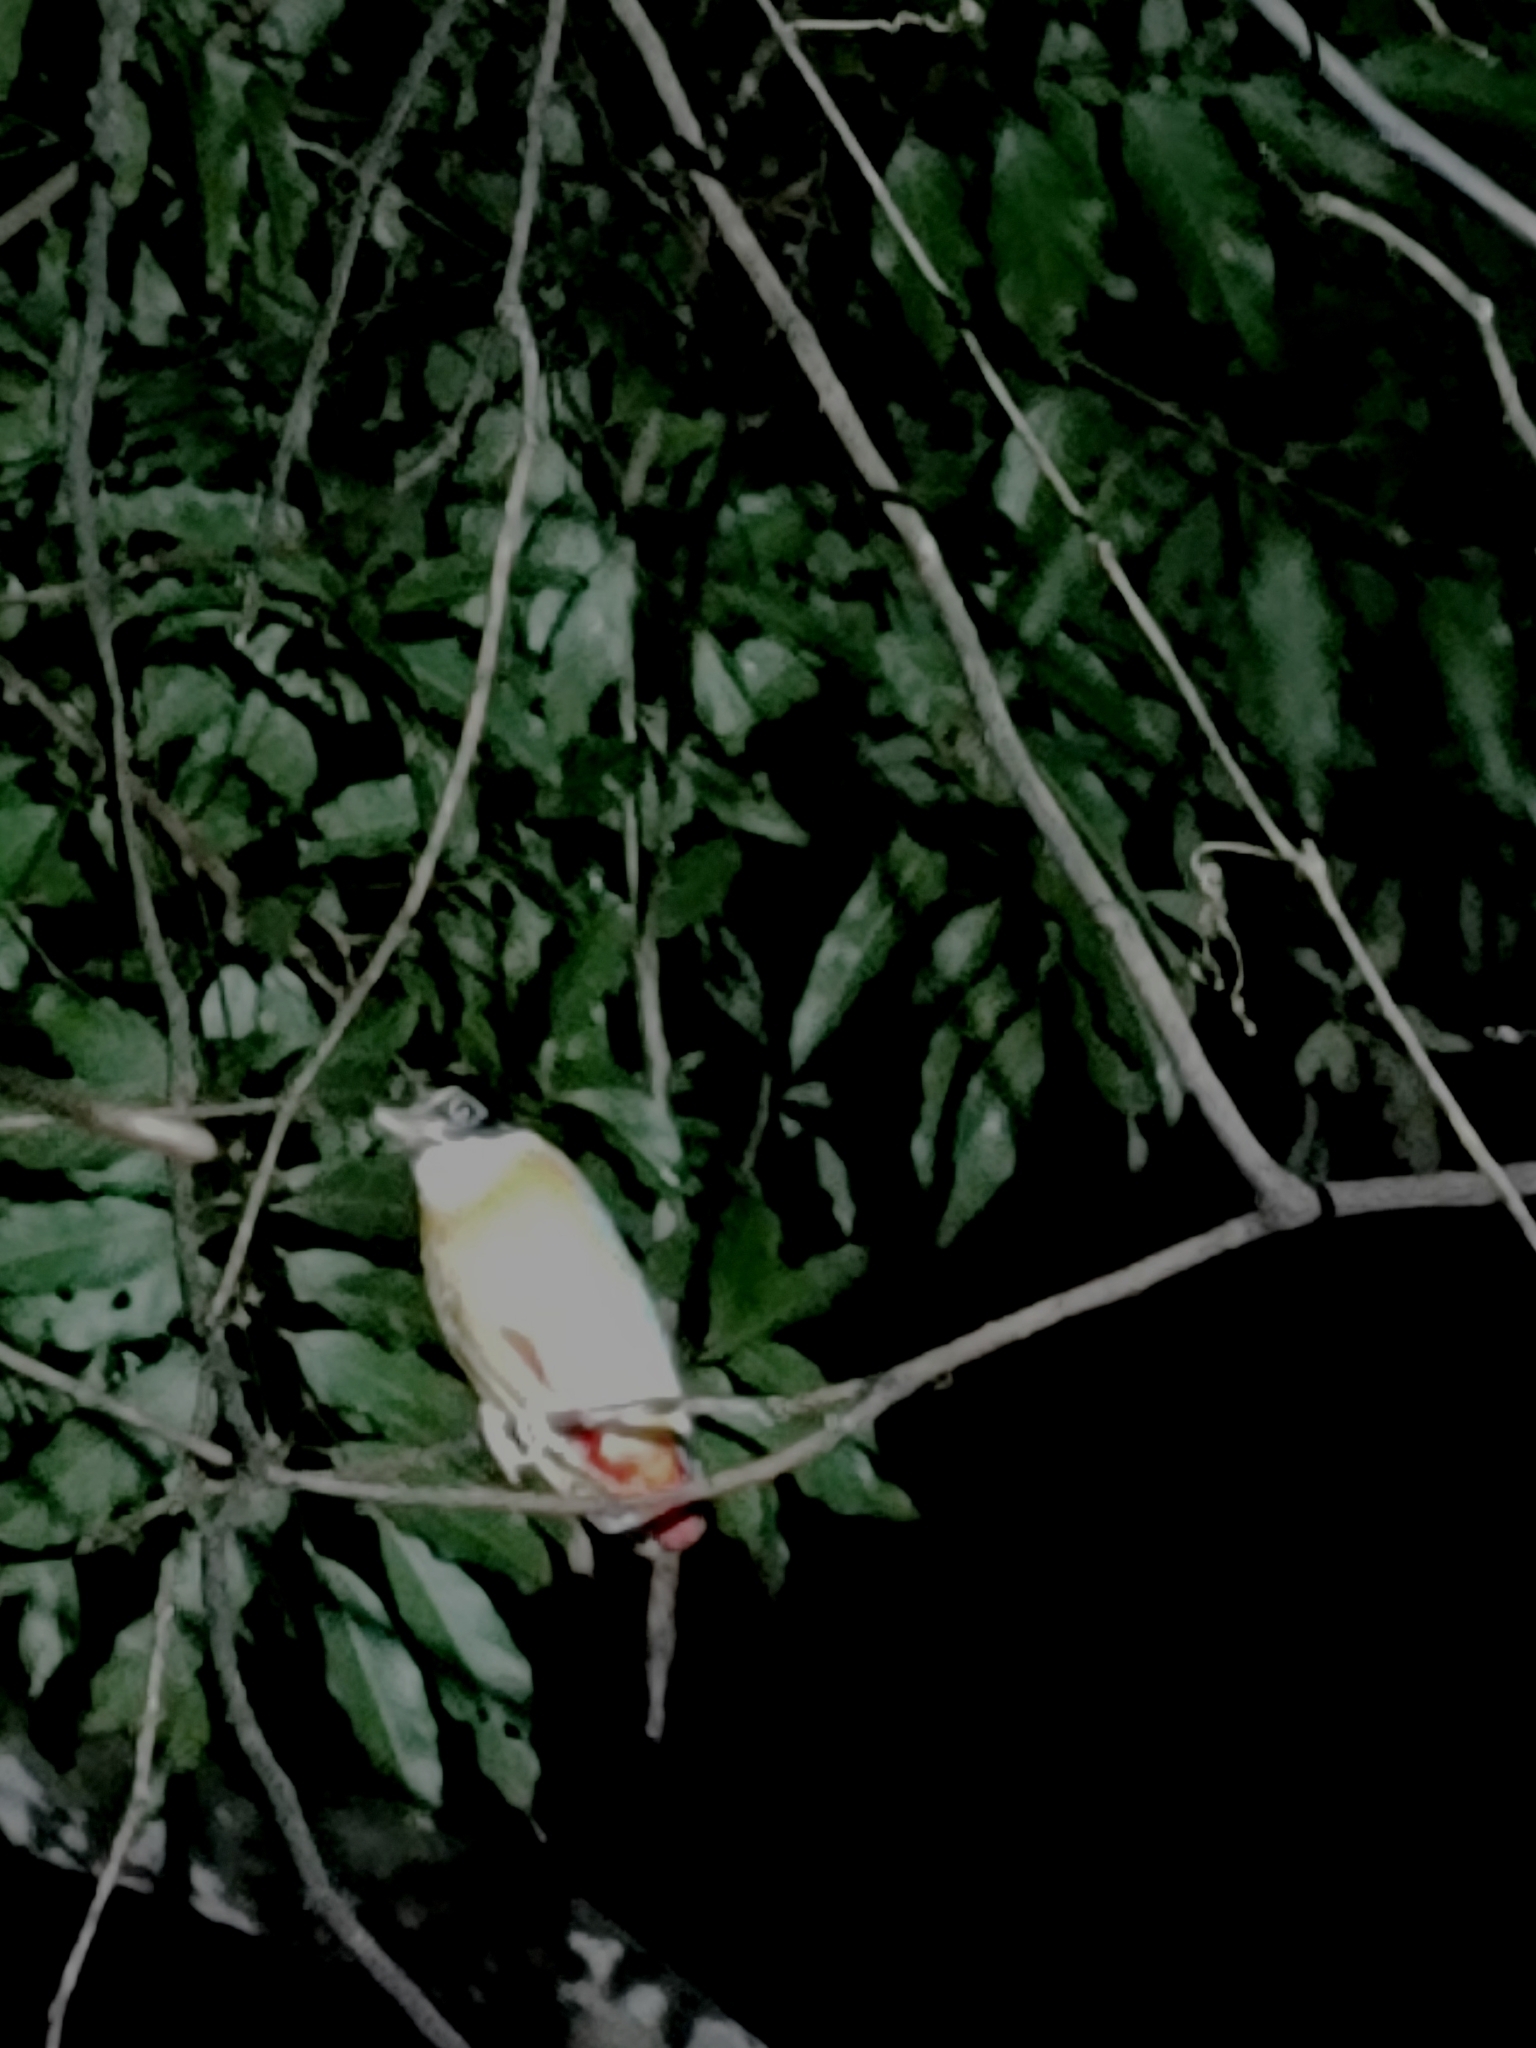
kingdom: Animalia
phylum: Chordata
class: Aves
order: Passeriformes
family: Pittidae
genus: Pitta
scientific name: Pitta moluccensis
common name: Blue-winged pitta
